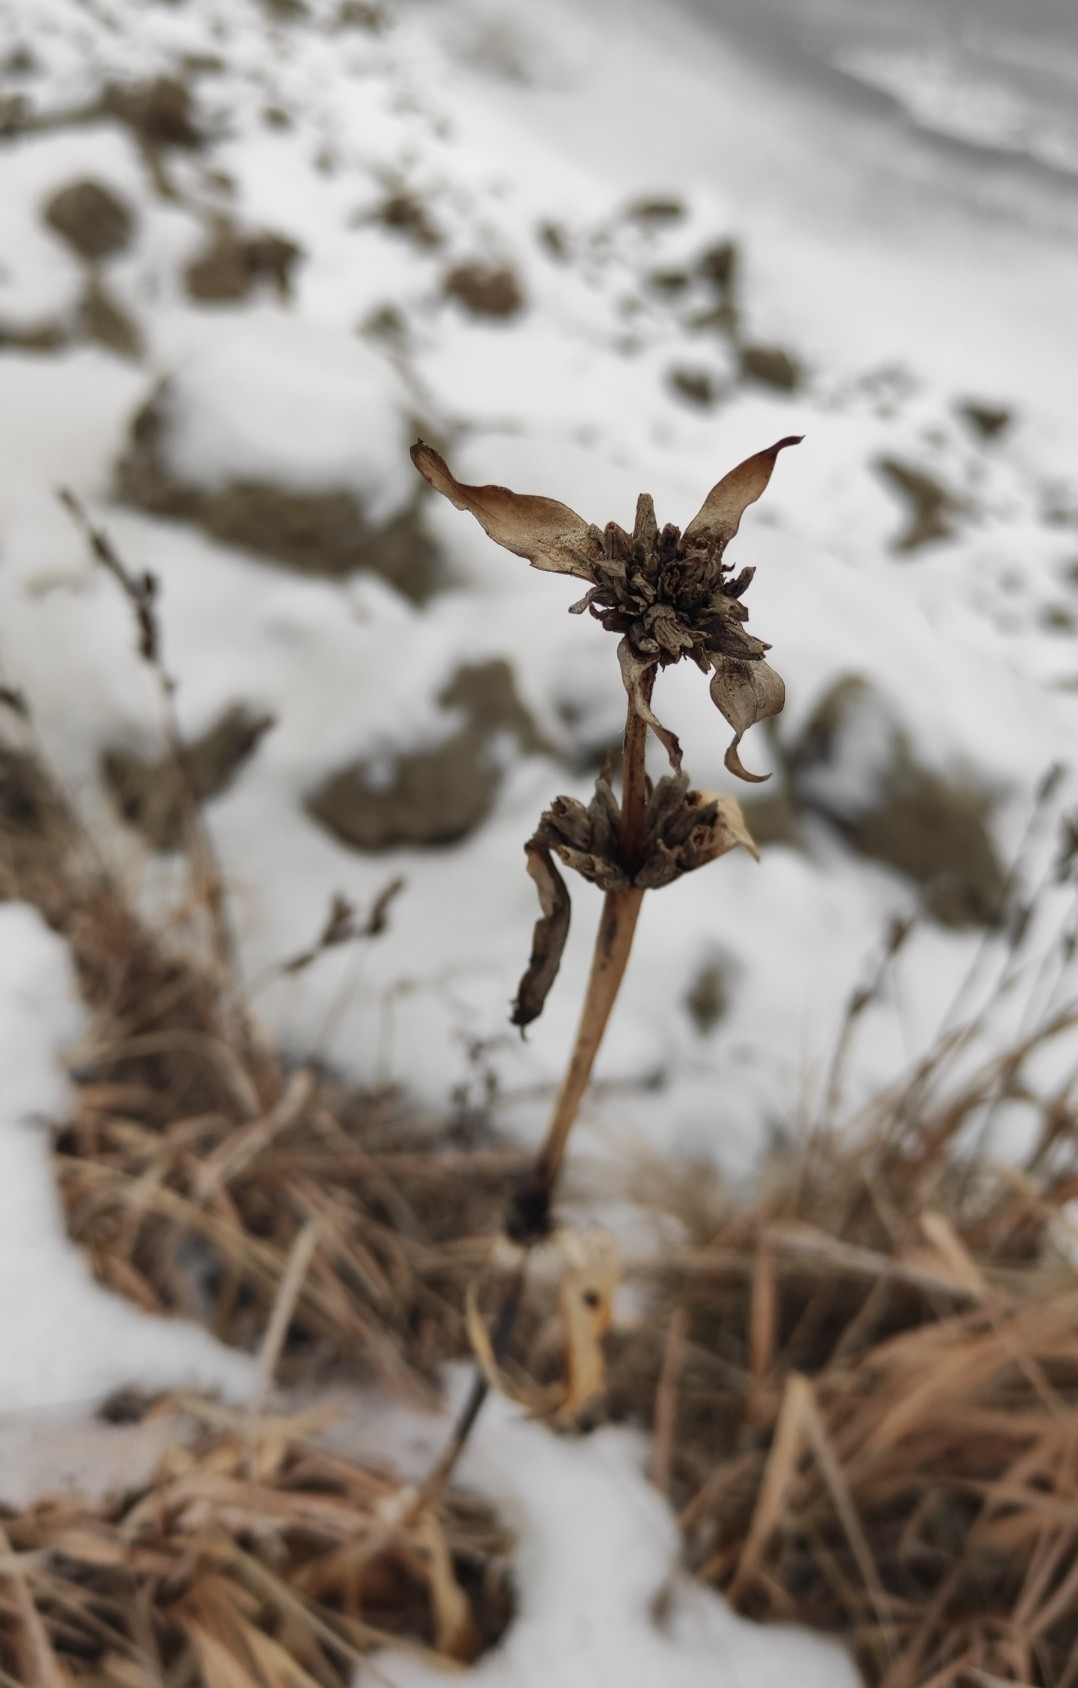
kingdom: Plantae
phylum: Tracheophyta
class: Magnoliopsida
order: Gentianales
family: Gentianaceae
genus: Gentiana
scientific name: Gentiana macrophylla
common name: Large-leaf gentian
